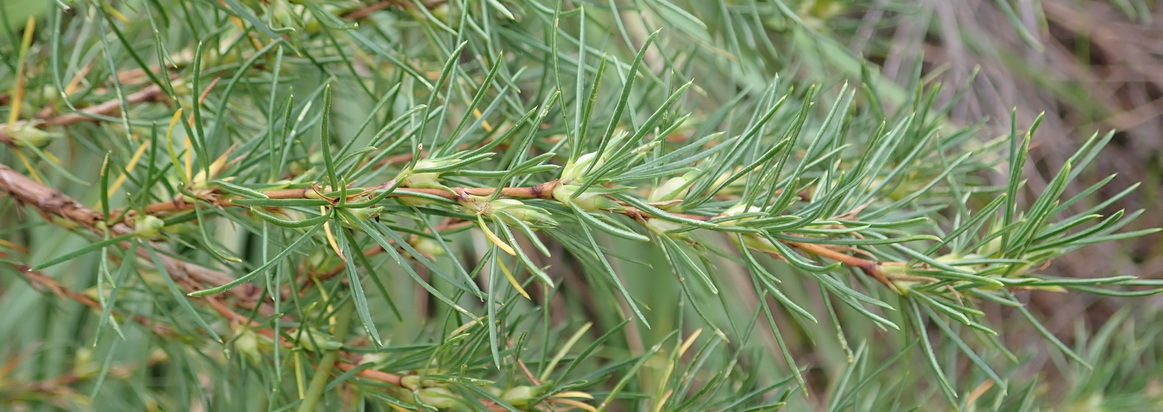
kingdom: Plantae
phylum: Tracheophyta
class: Magnoliopsida
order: Rosales
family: Rosaceae
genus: Cliffortia
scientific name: Cliffortia burchellii
